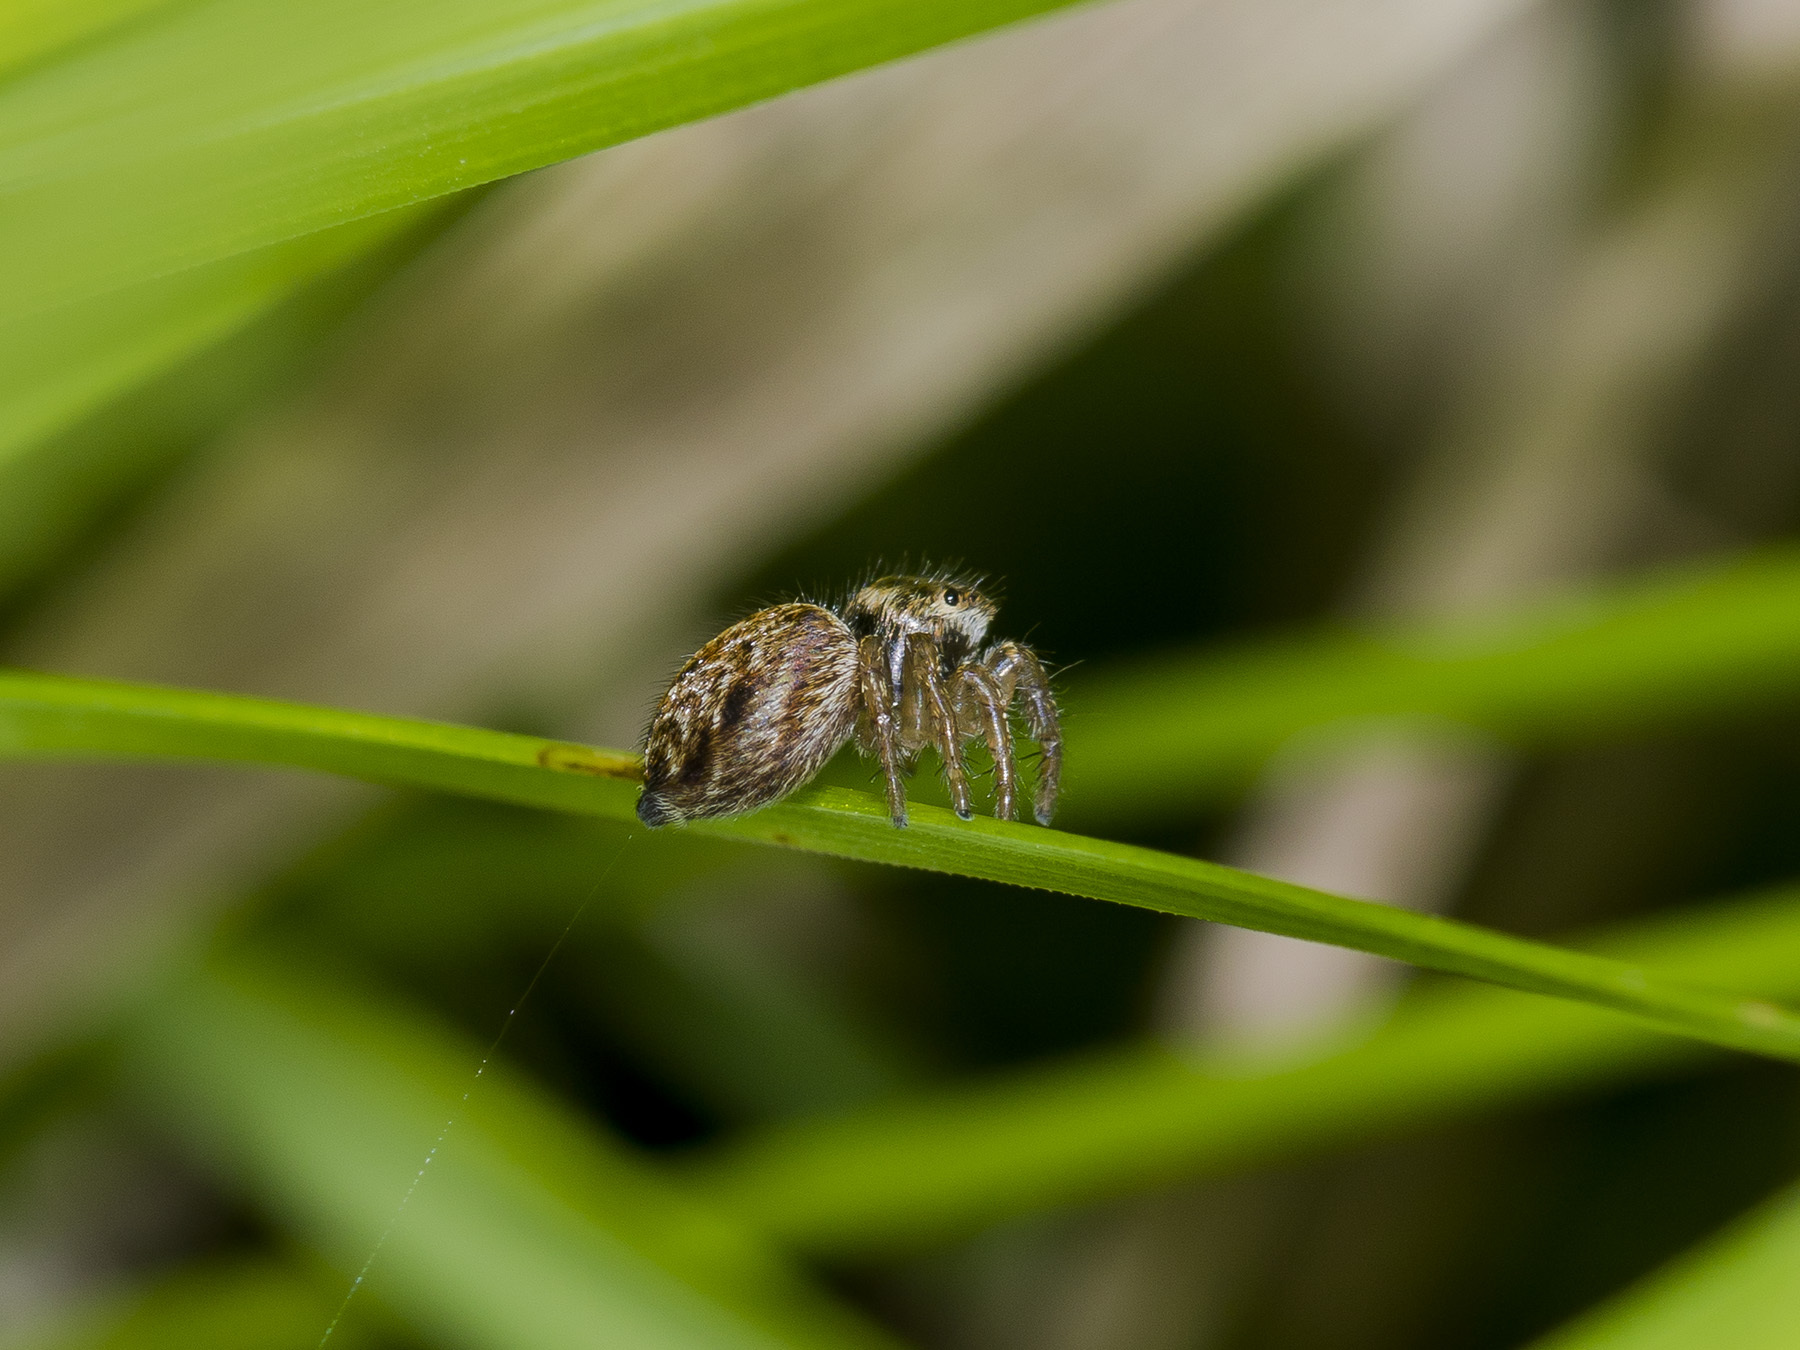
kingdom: Animalia
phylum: Arthropoda
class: Arachnida
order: Araneae
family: Salticidae
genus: Evarcha
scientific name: Evarcha arcuata
